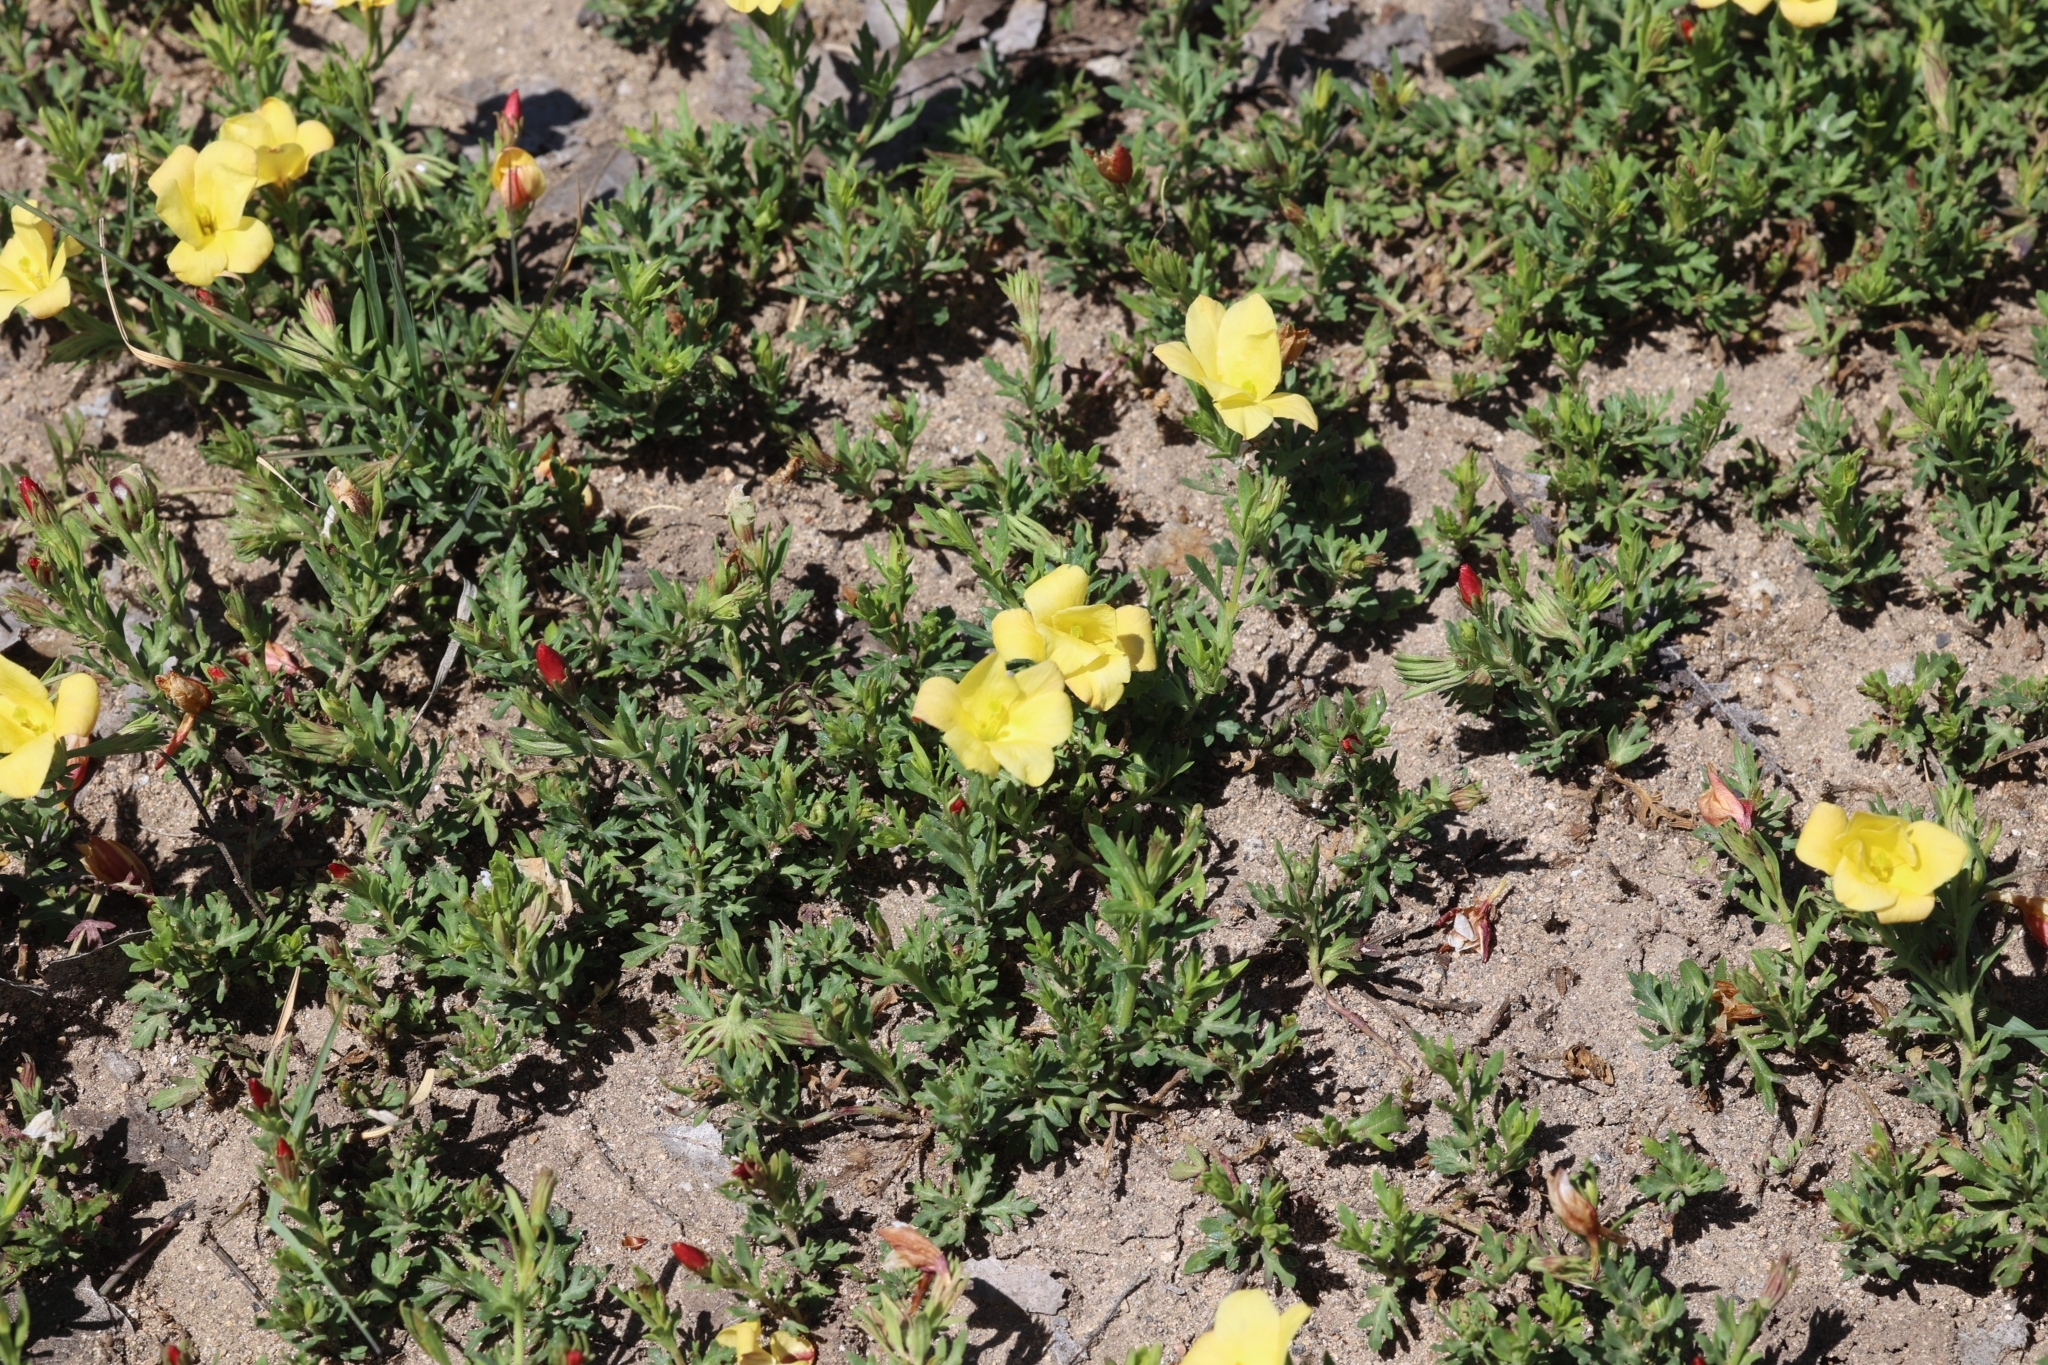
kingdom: Plantae
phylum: Tracheophyta
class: Magnoliopsida
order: Lamiales
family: Oleaceae
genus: Menodora
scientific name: Menodora heterophylla
